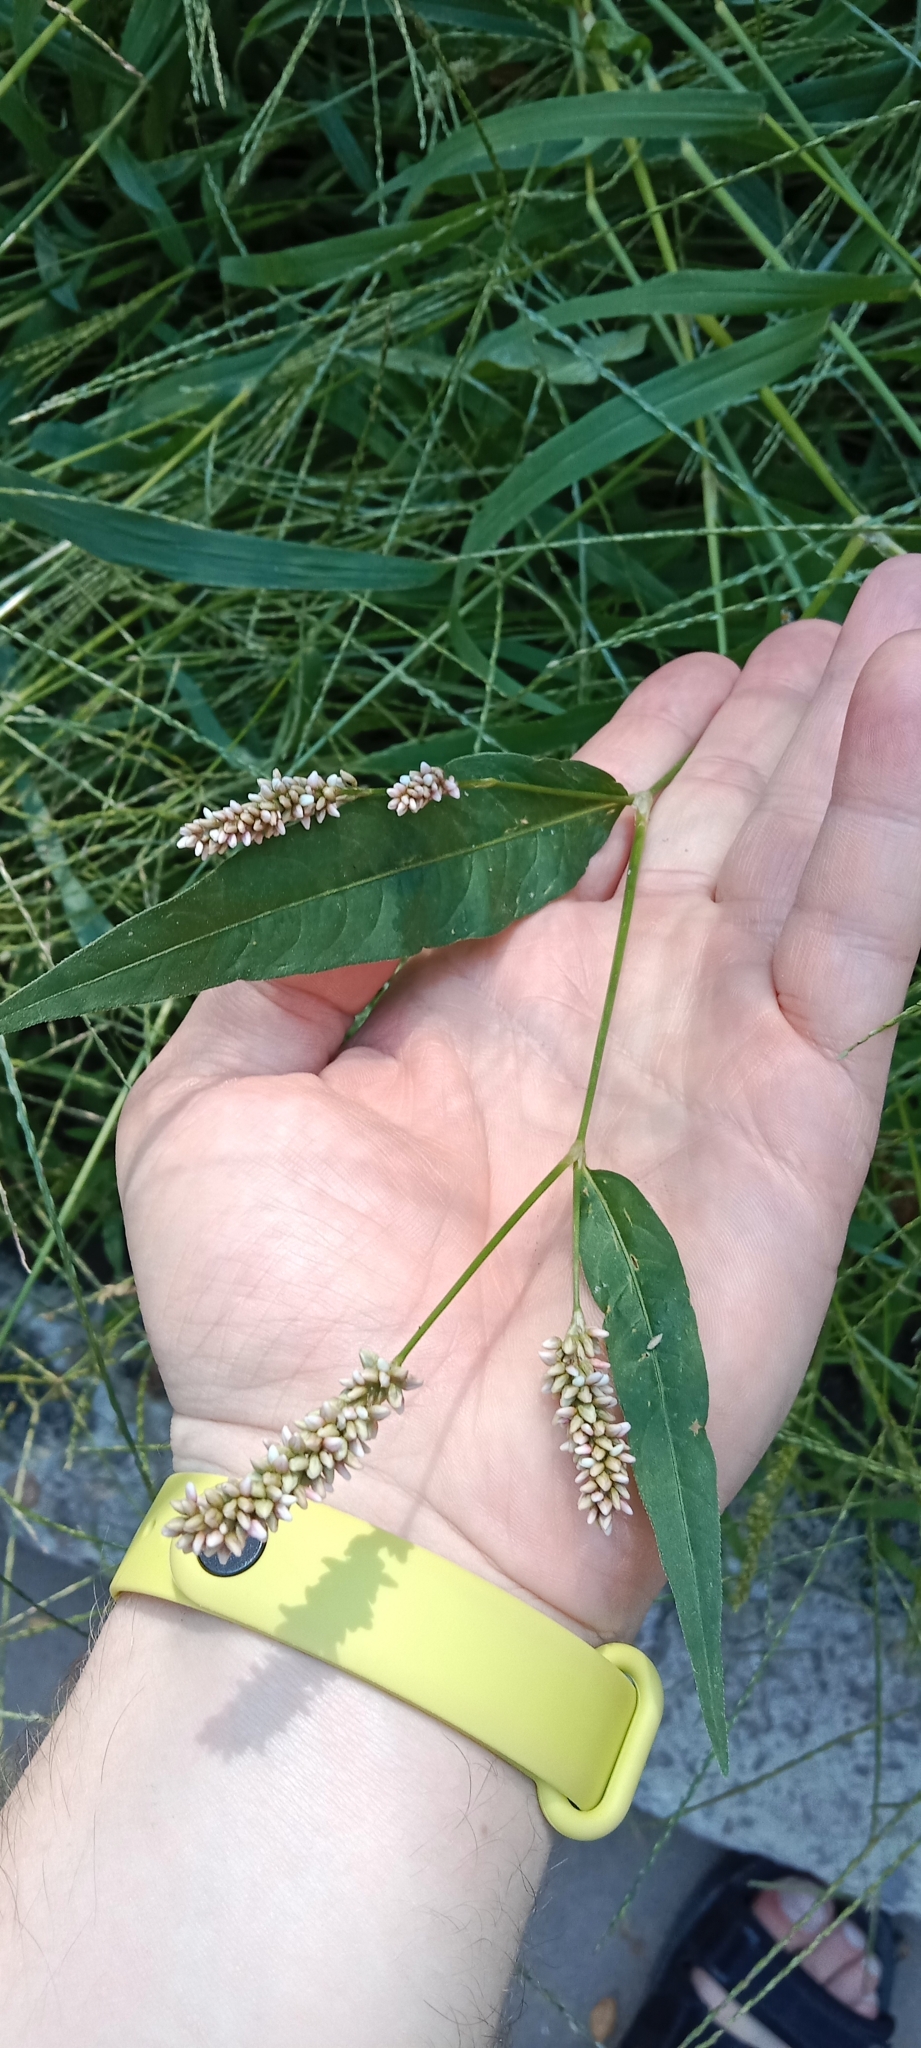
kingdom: Plantae
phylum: Tracheophyta
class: Magnoliopsida
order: Caryophyllales
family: Polygonaceae
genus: Persicaria
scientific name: Persicaria maculosa
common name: Redshank
